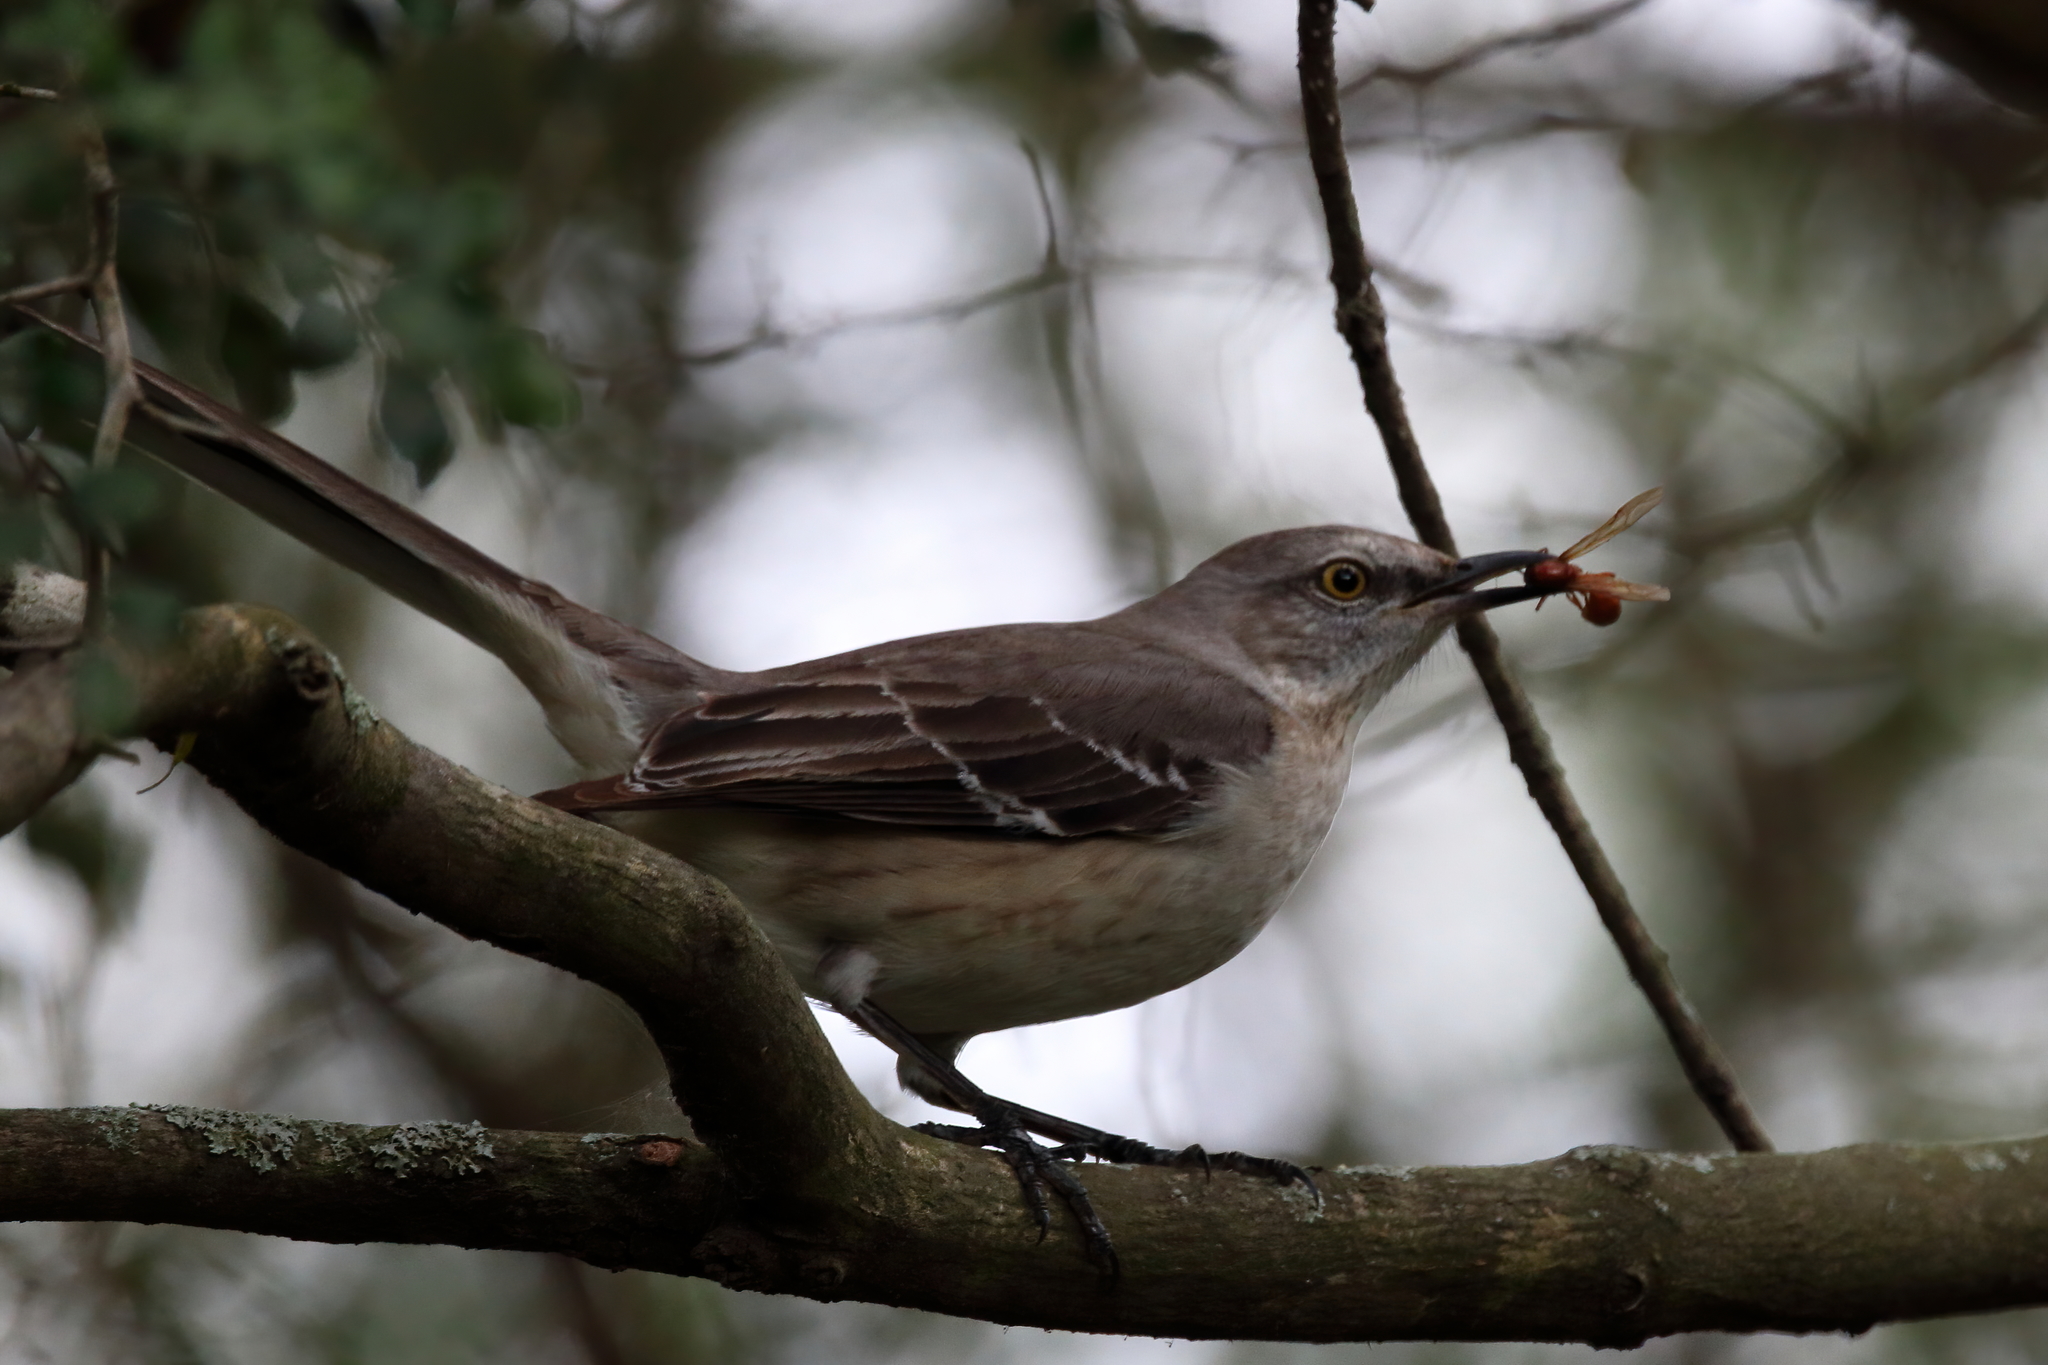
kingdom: Animalia
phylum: Chordata
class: Aves
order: Passeriformes
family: Mimidae
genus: Mimus
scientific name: Mimus polyglottos
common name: Northern mockingbird
